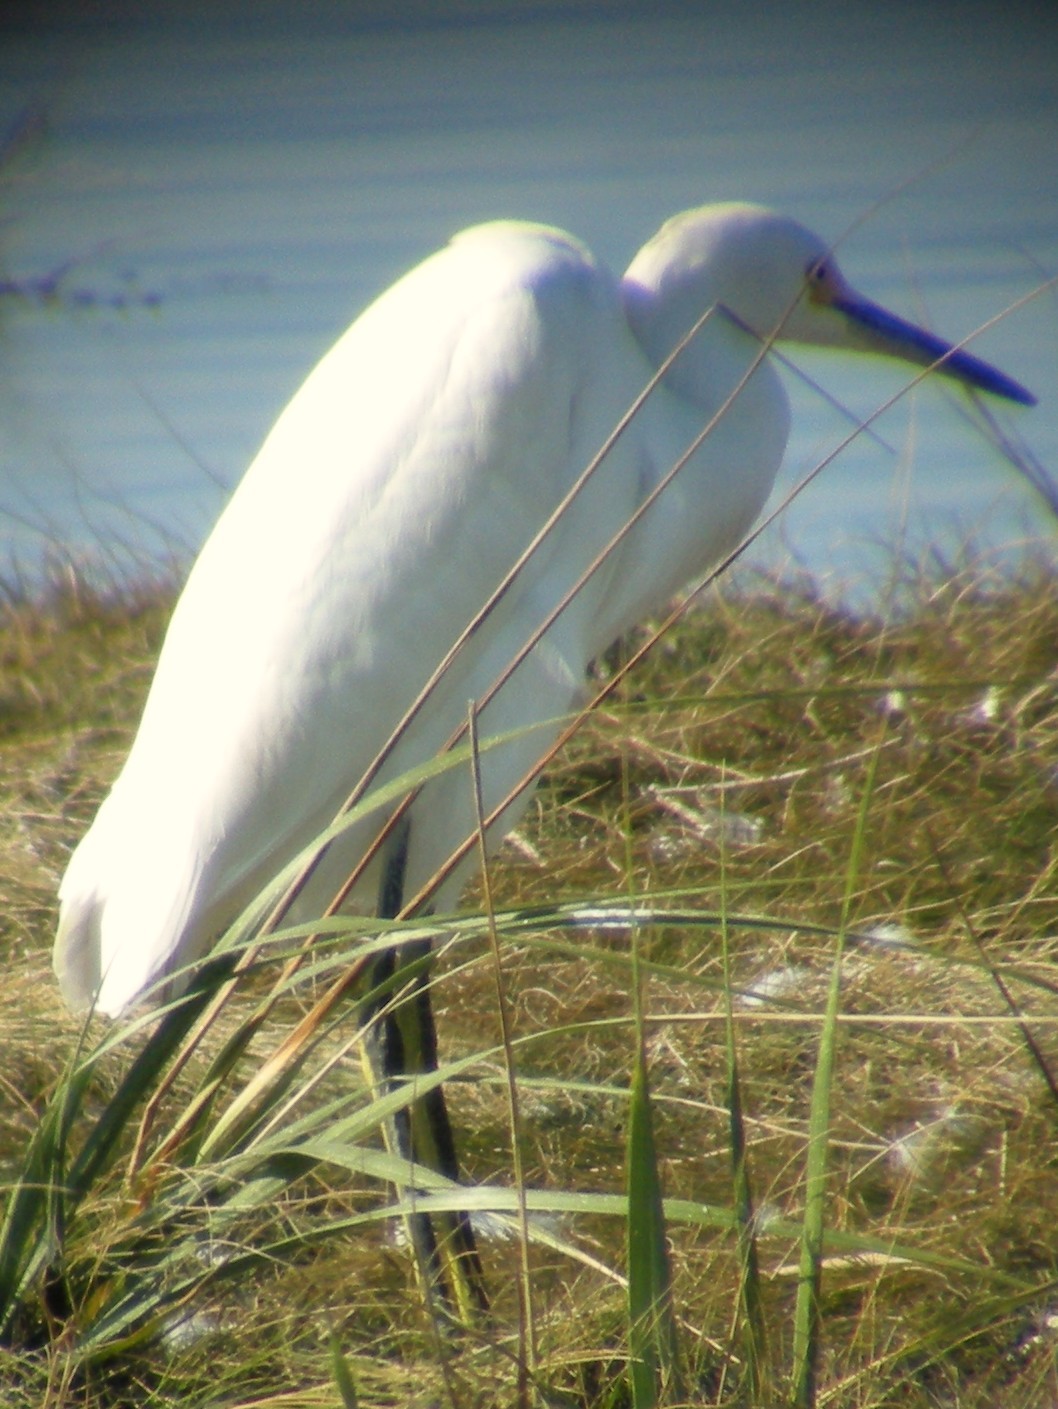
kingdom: Animalia
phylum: Chordata
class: Aves
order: Pelecaniformes
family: Ardeidae
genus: Egretta
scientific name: Egretta thula
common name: Snowy egret
